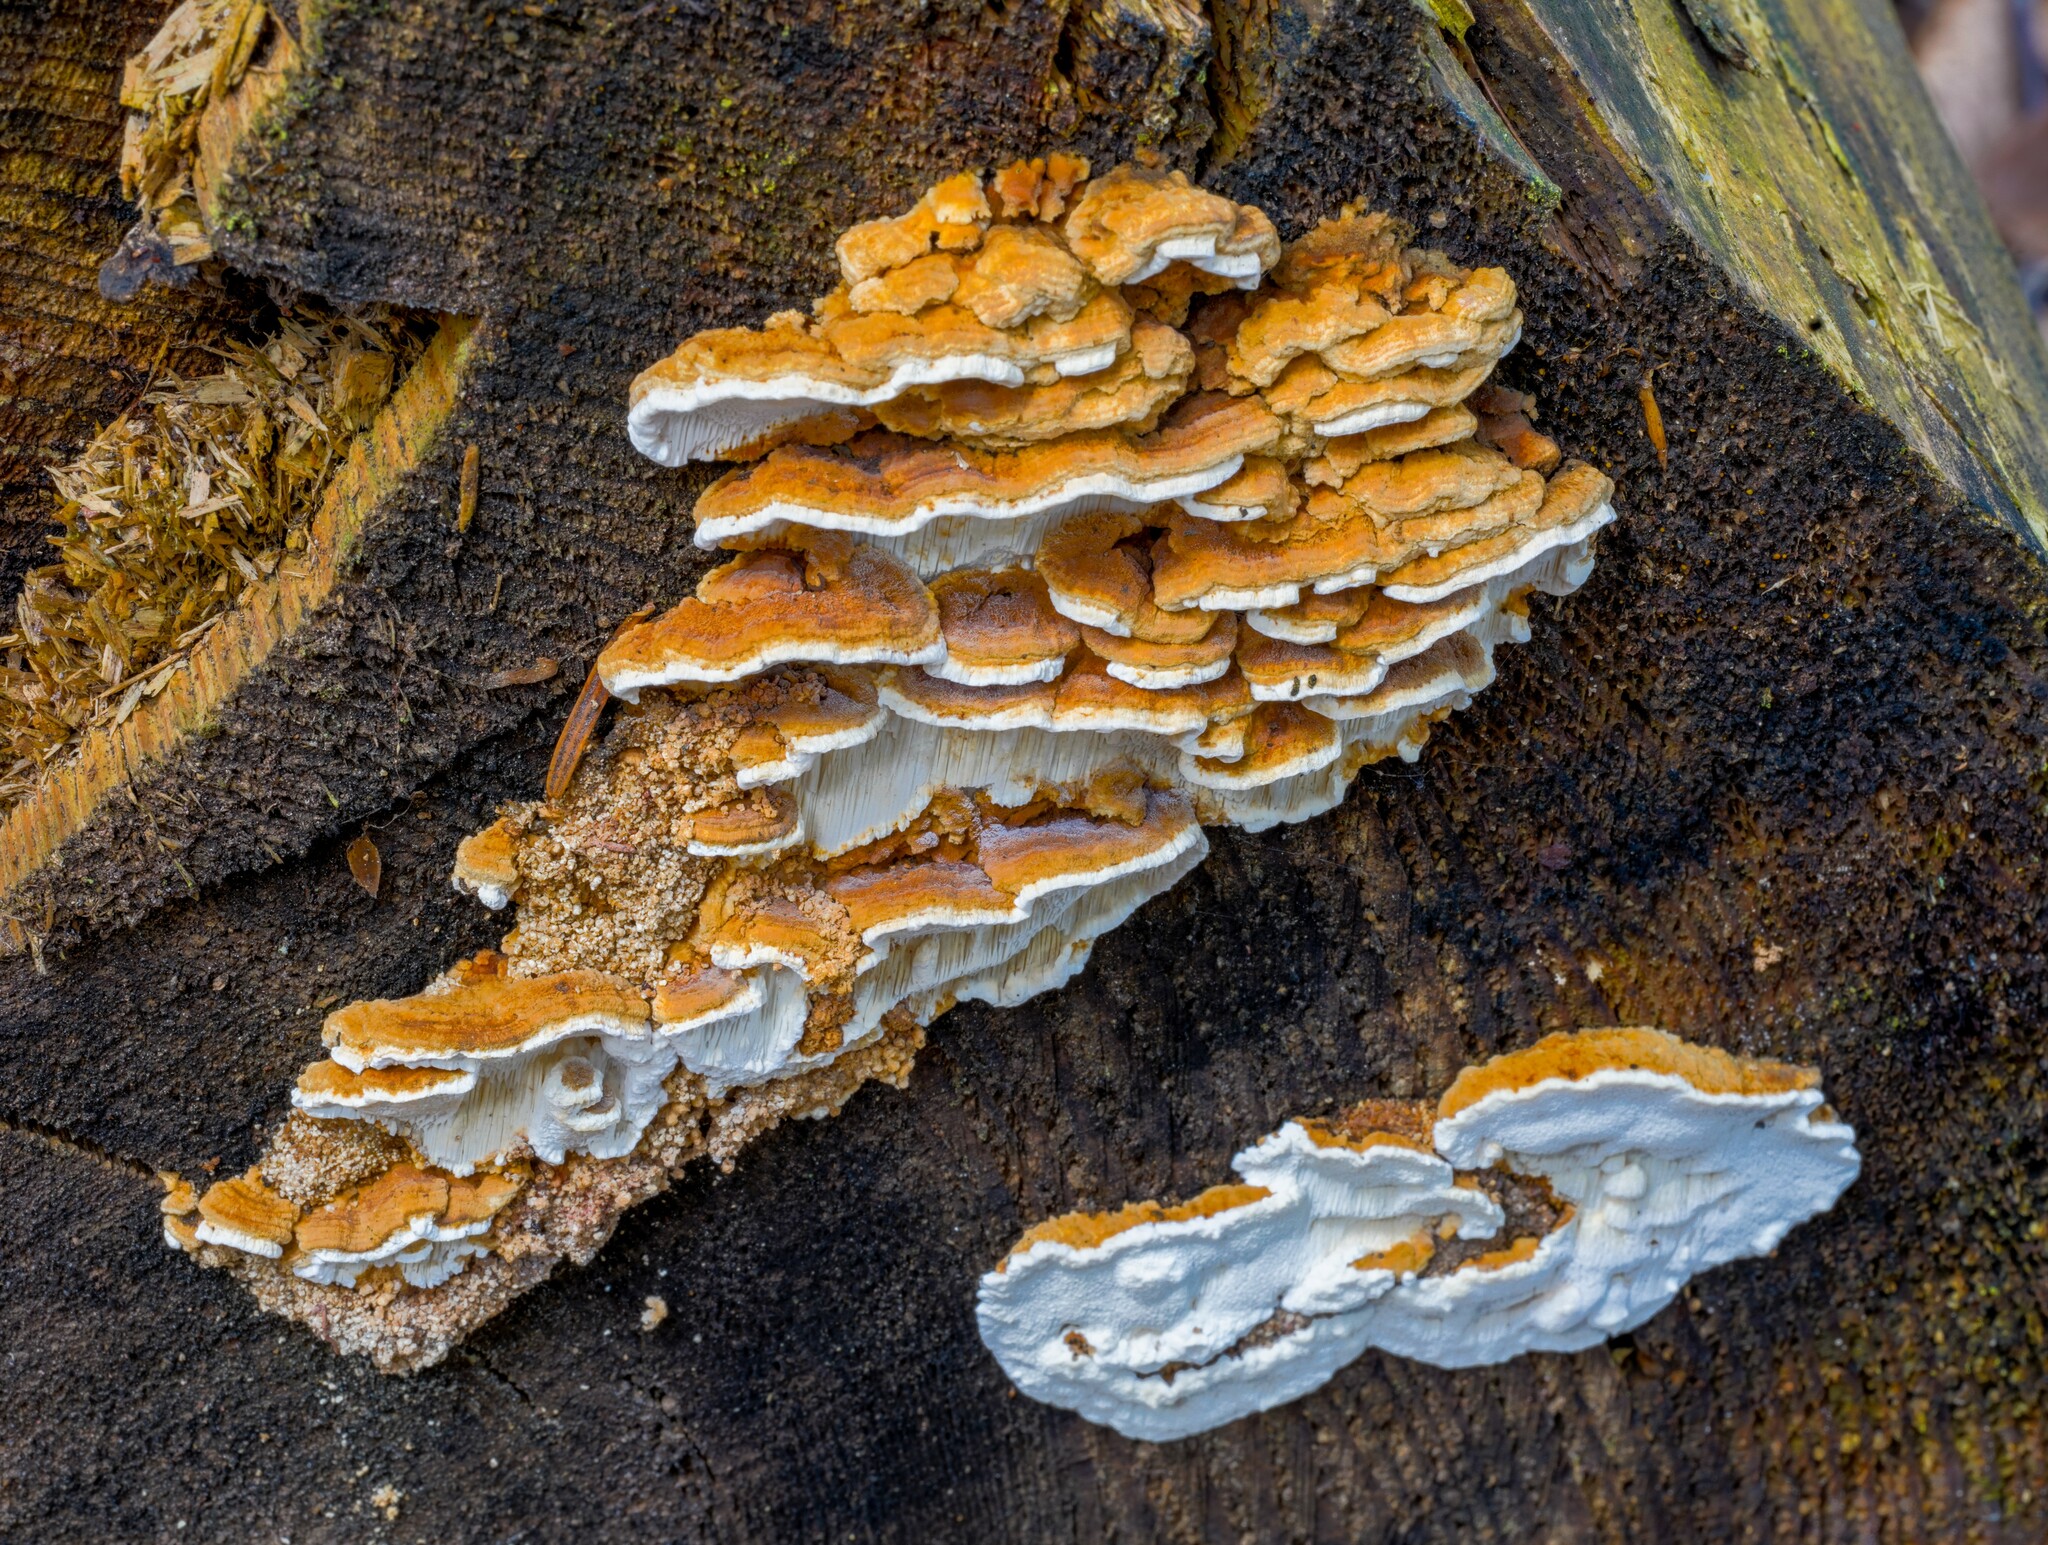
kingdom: Fungi
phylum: Basidiomycota
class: Agaricomycetes
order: Polyporales
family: Fomitopsidaceae
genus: Neoantrodia
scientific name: Neoantrodia serialis
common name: Serried porecrust
